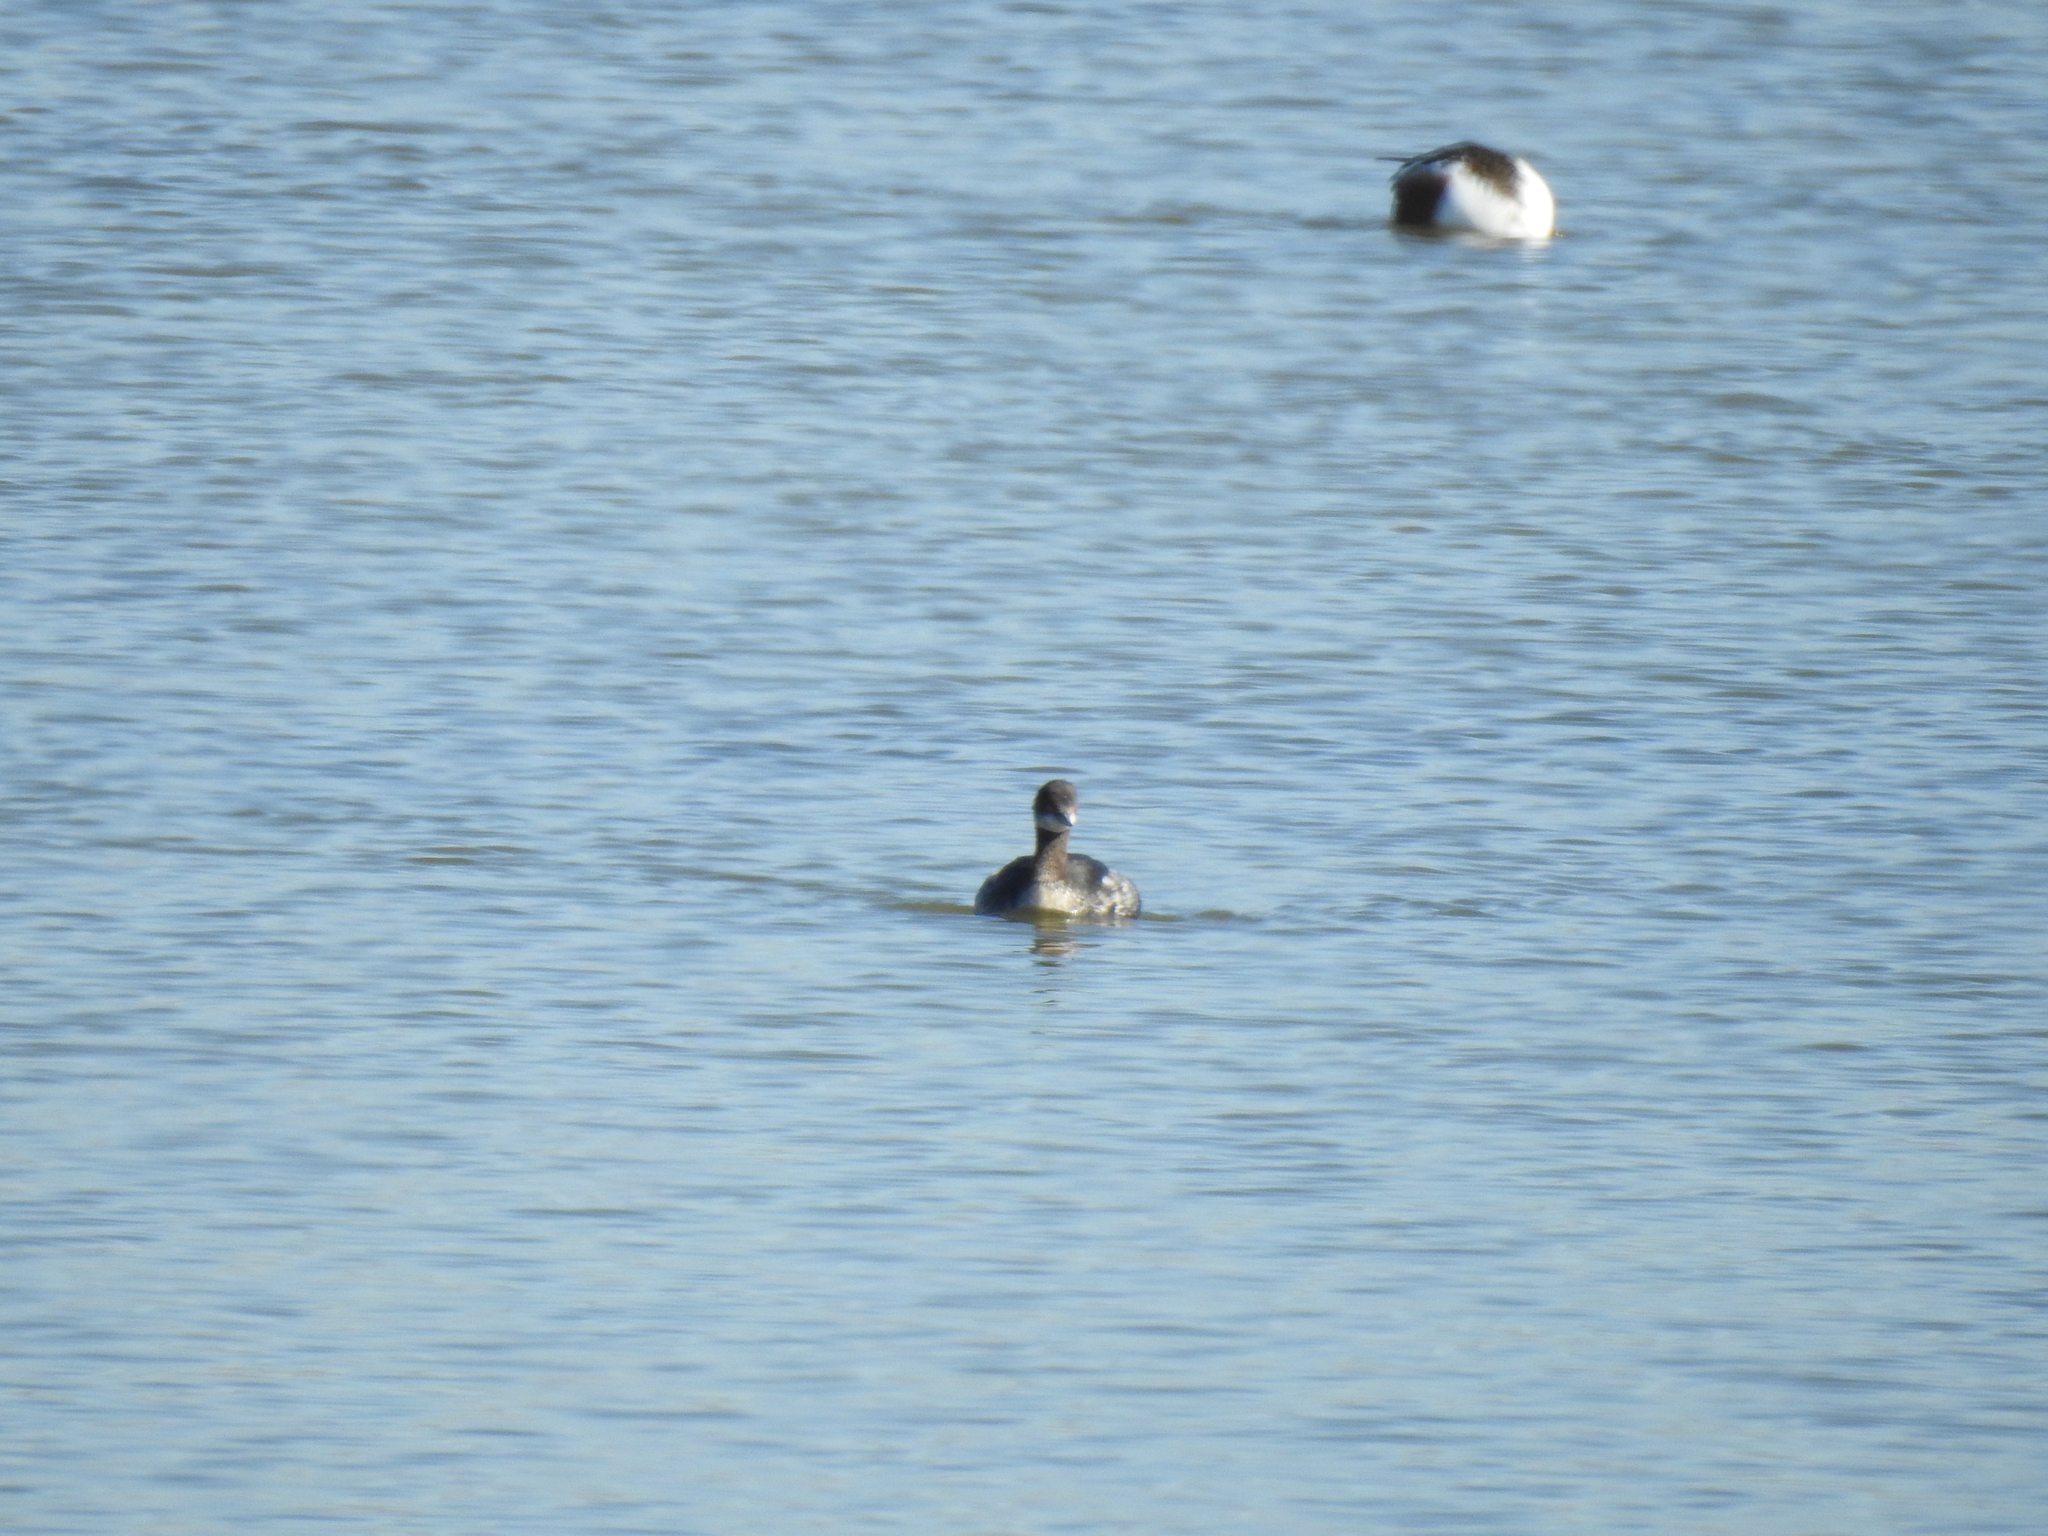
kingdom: Animalia
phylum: Chordata
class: Aves
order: Podicipediformes
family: Podicipedidae
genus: Podiceps
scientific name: Podiceps nigricollis
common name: Black-necked grebe
